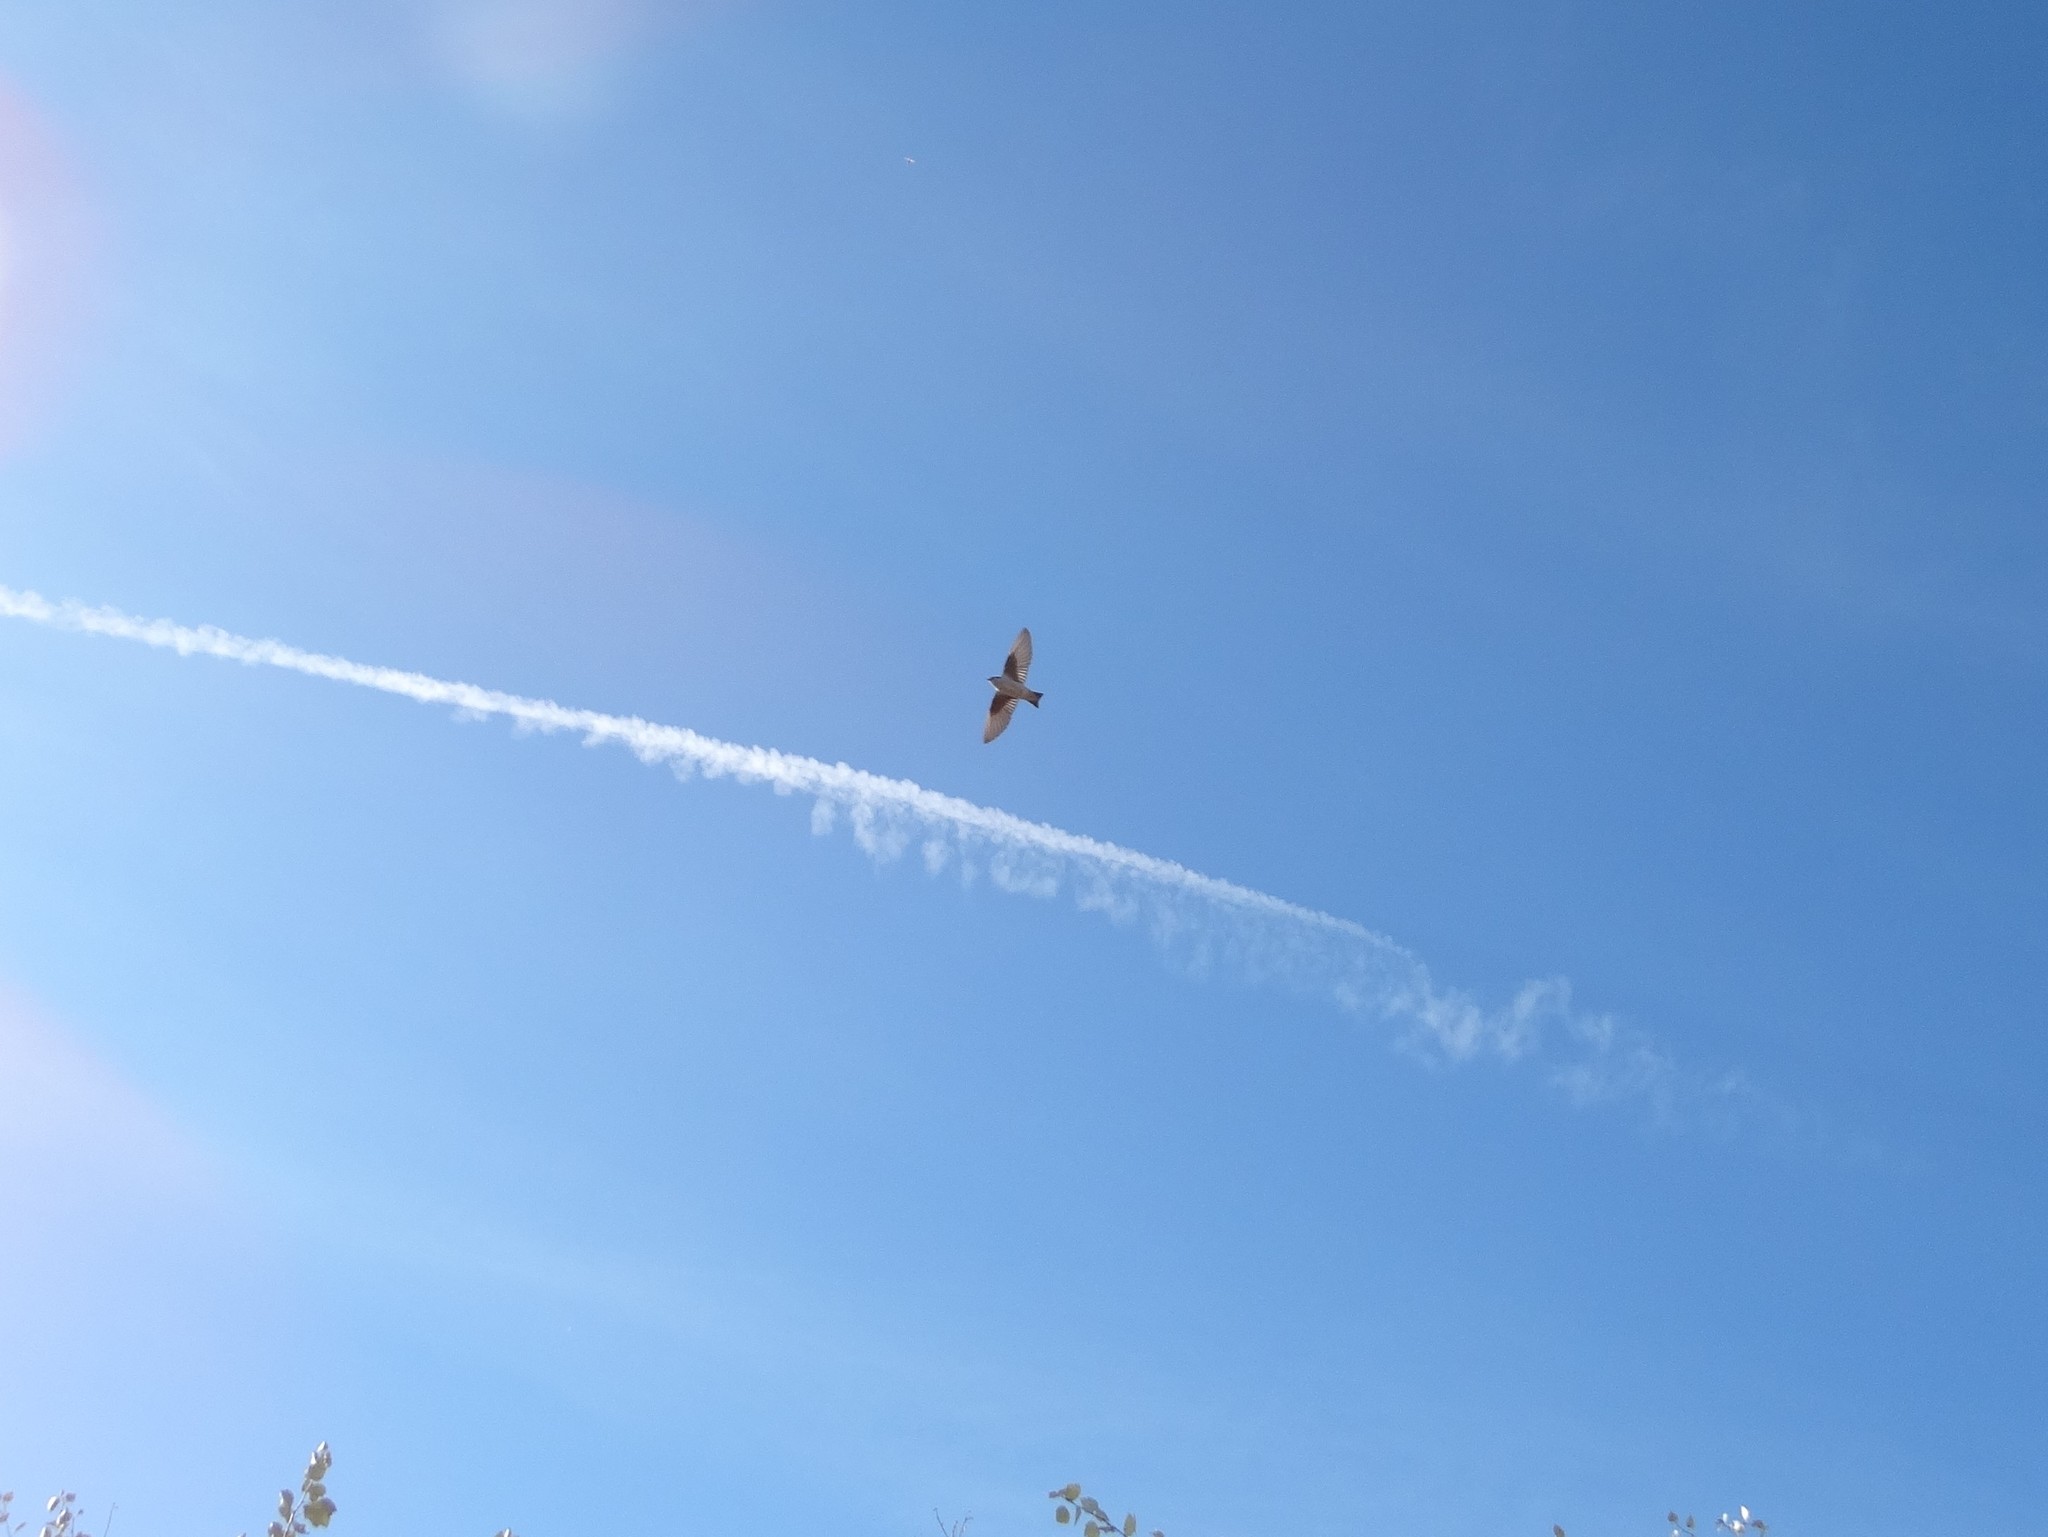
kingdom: Animalia
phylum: Chordata
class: Aves
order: Passeriformes
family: Hirundinidae
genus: Tachycineta
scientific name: Tachycineta thalassina
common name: Violet-green swallow
